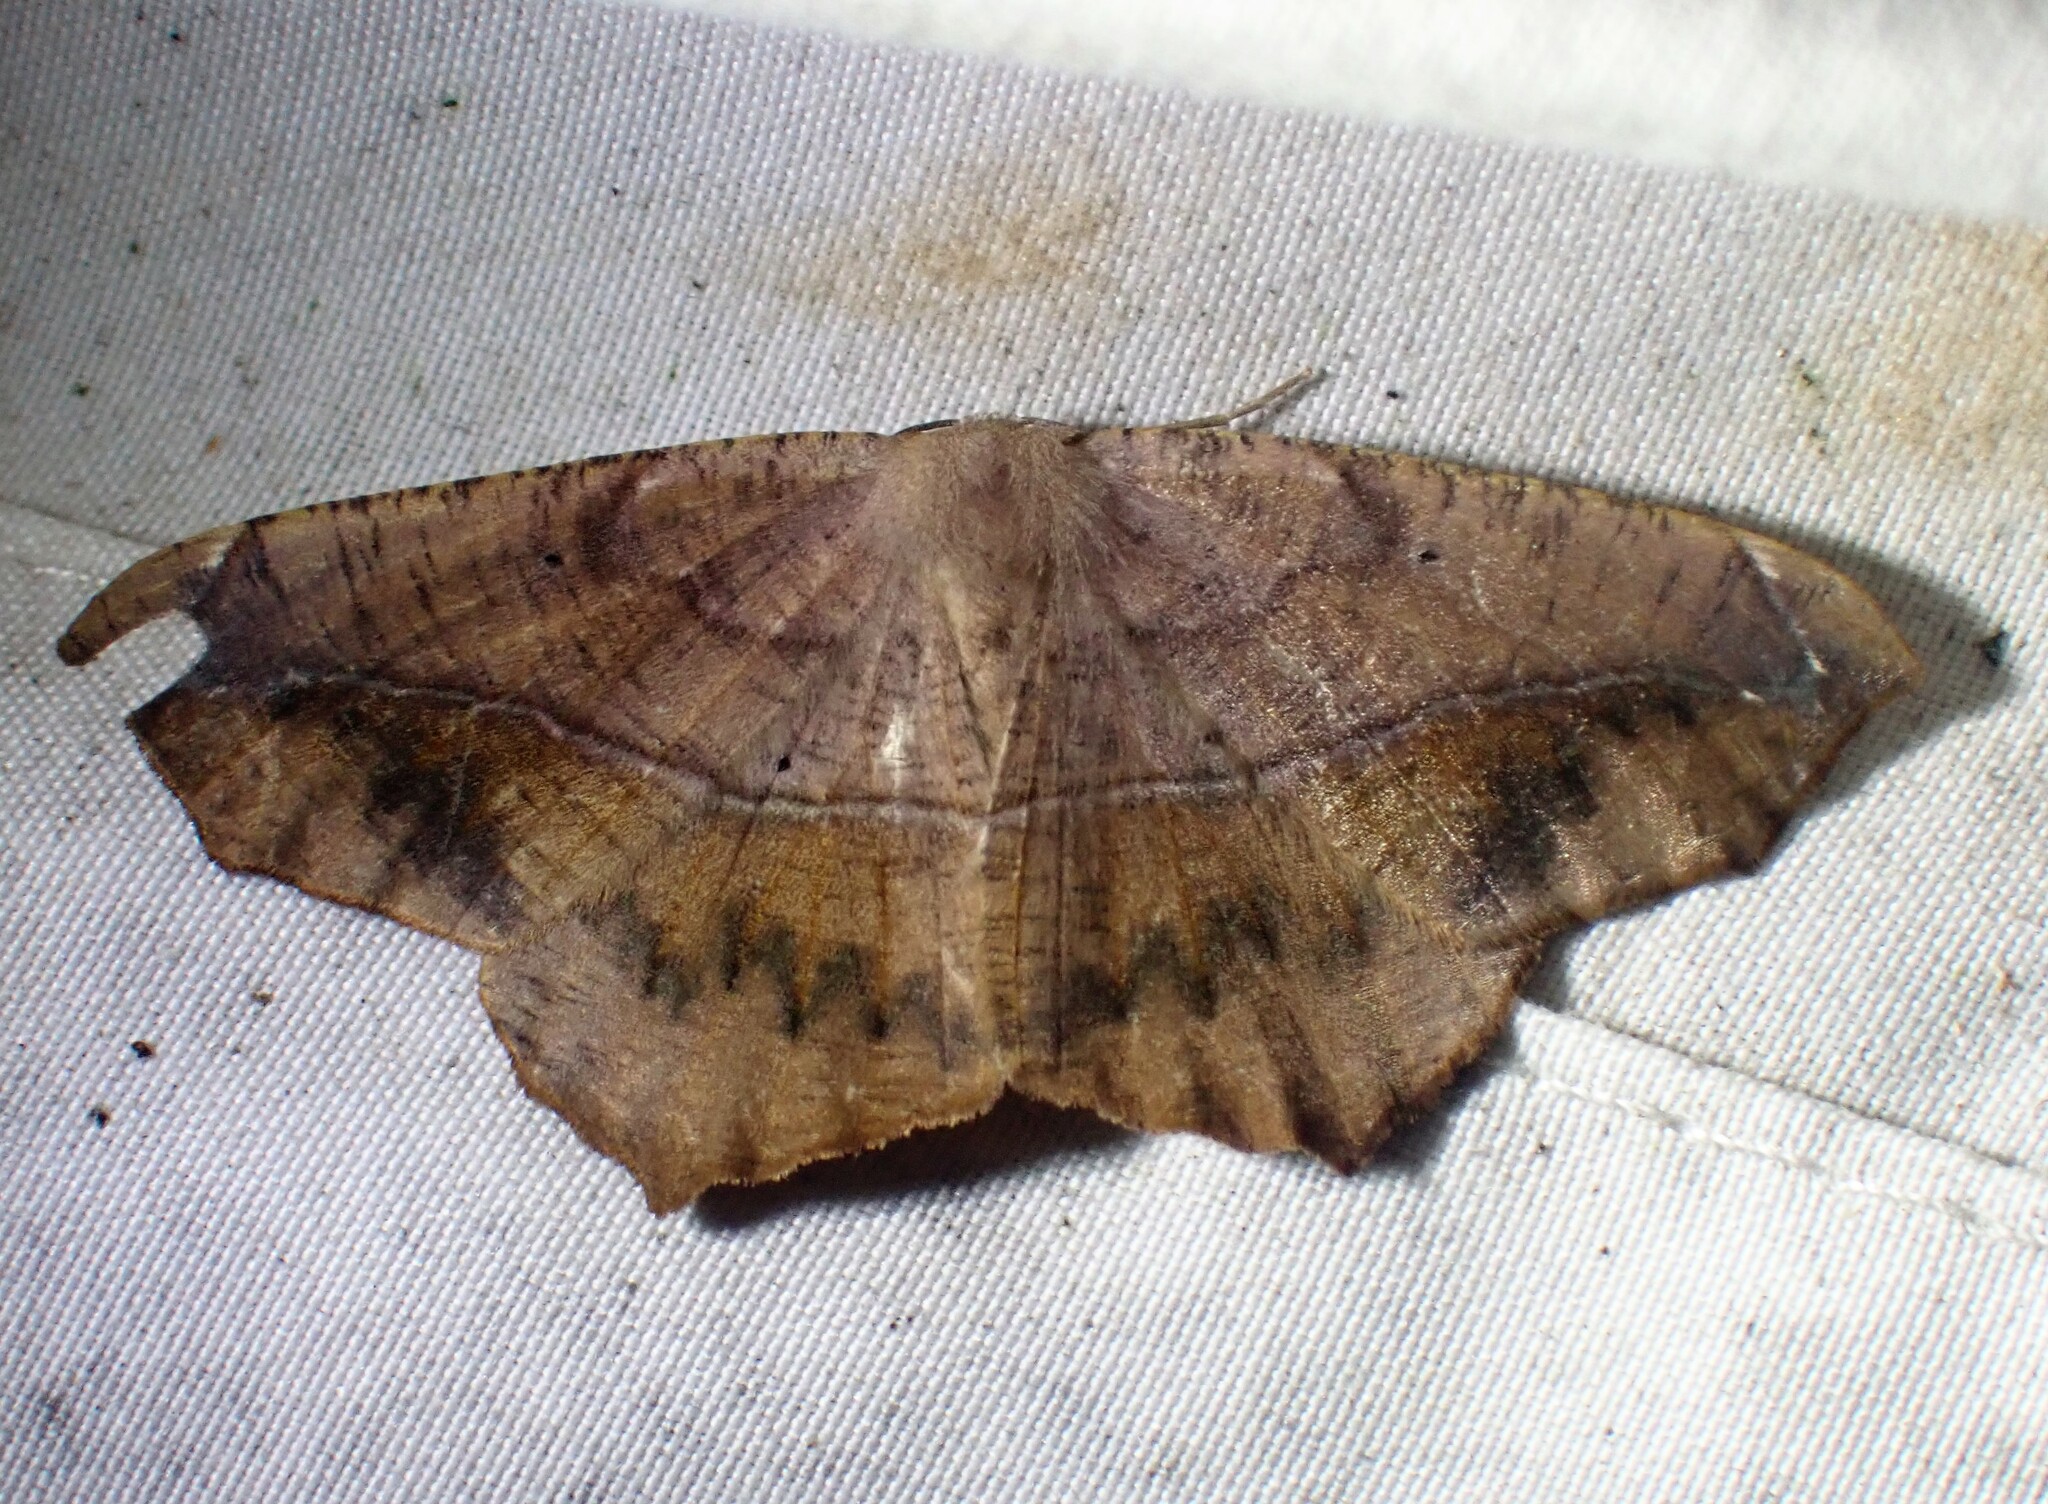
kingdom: Animalia
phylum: Arthropoda
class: Insecta
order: Lepidoptera
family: Geometridae
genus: Prochoerodes
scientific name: Prochoerodes lineola
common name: Large maple spanworm
